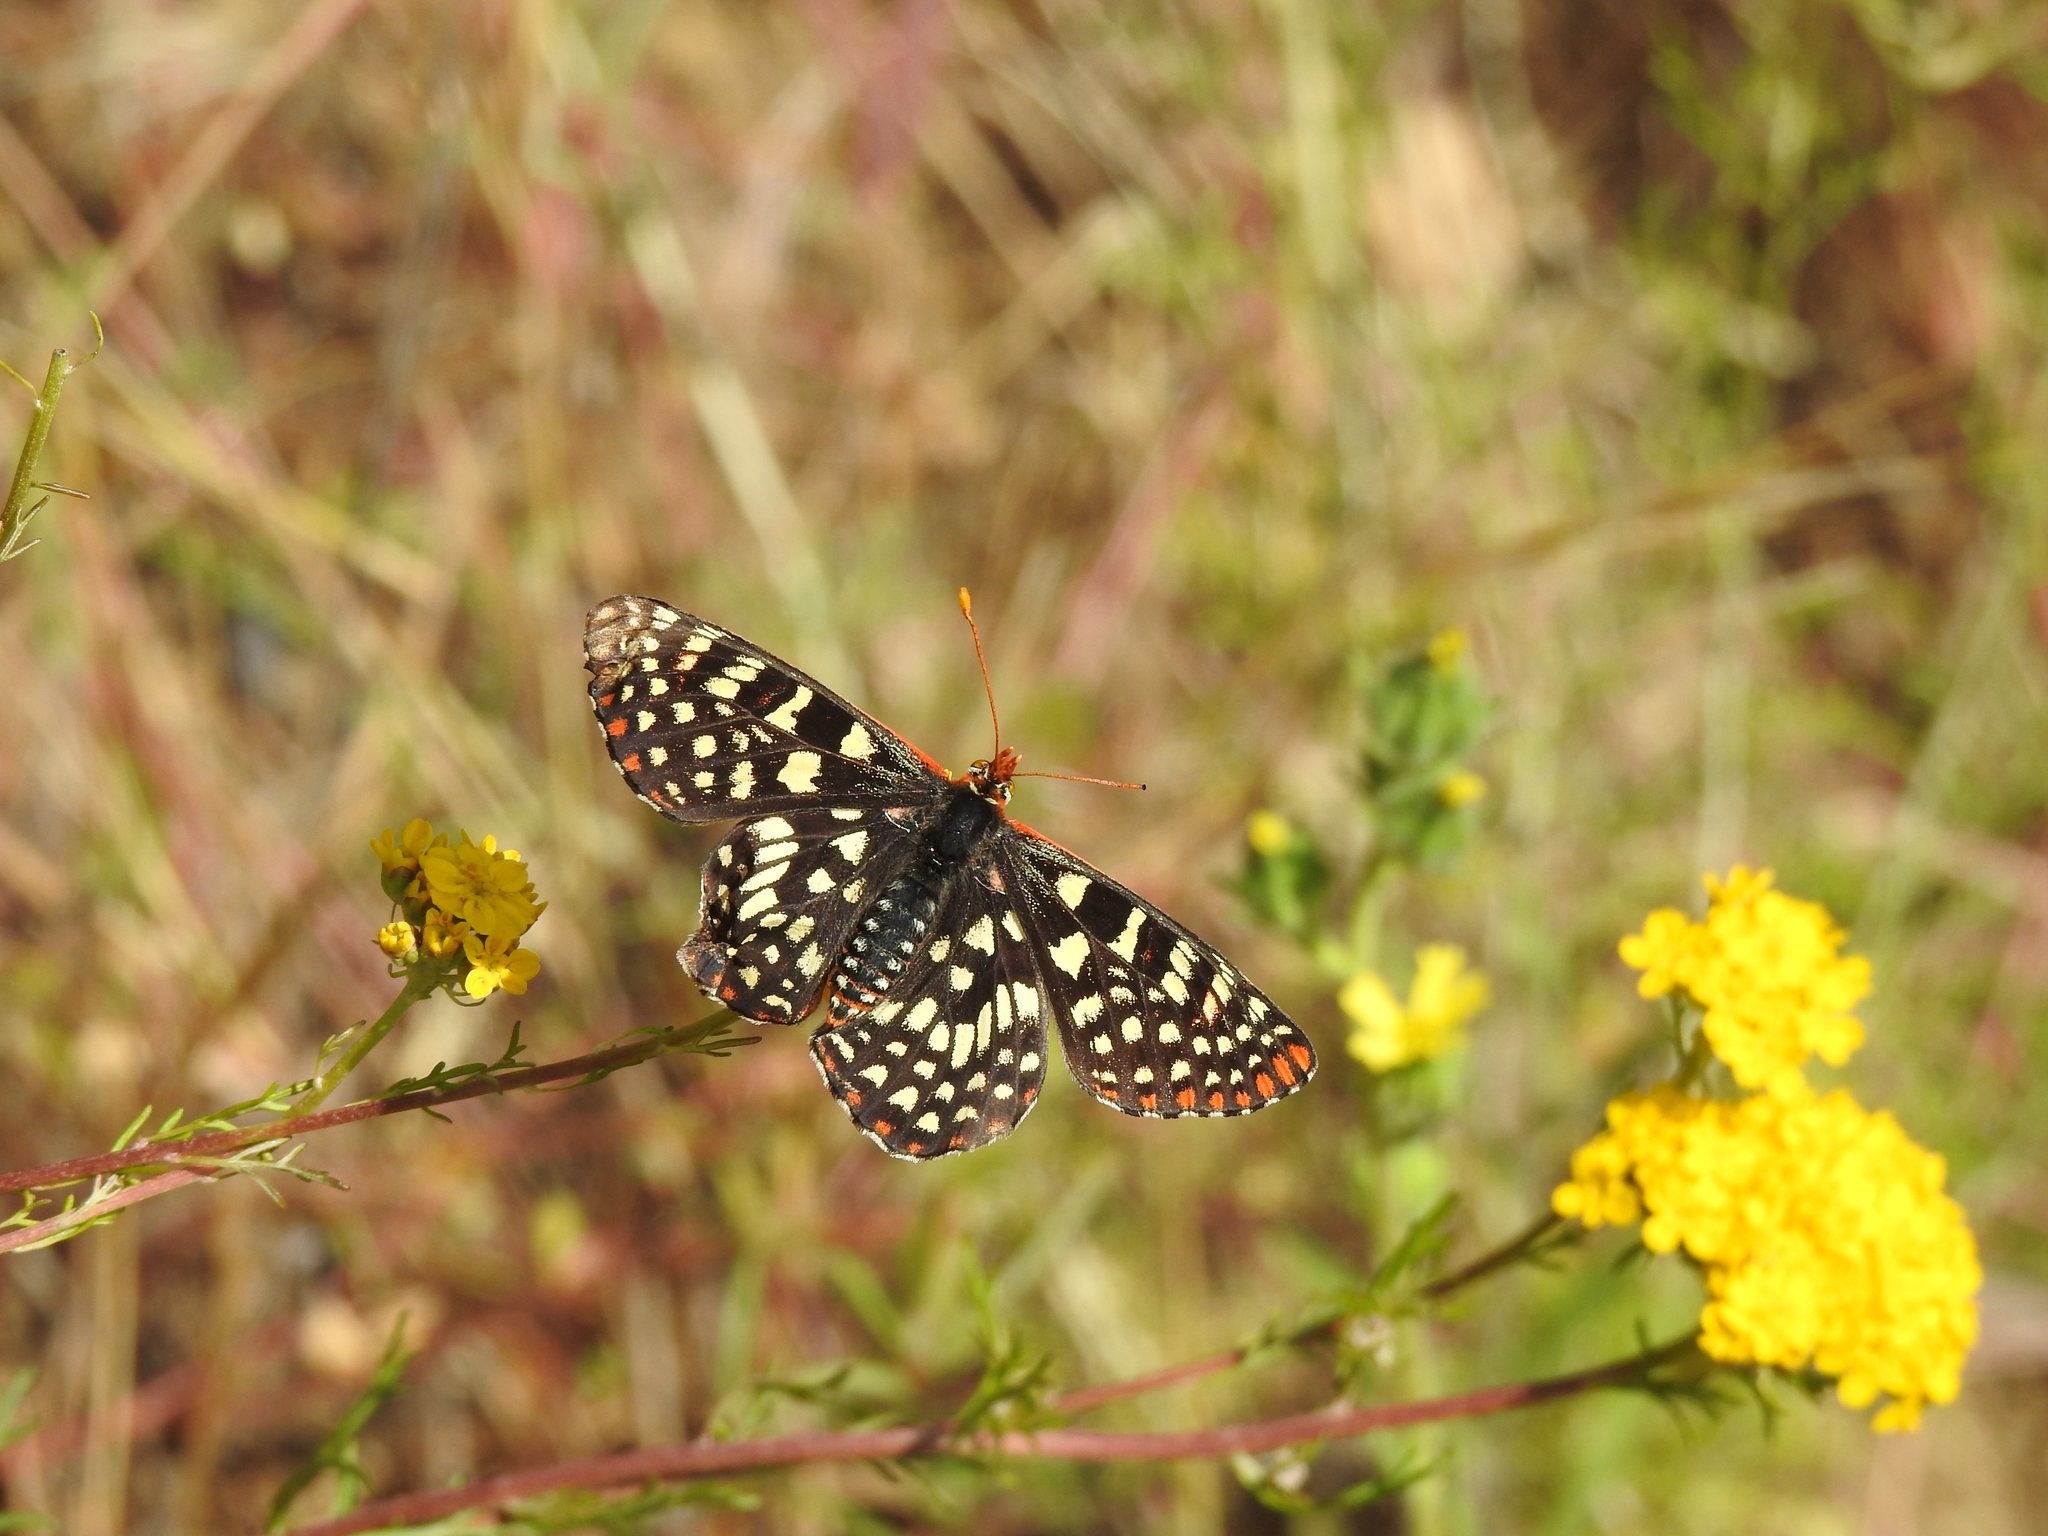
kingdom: Animalia
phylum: Arthropoda
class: Insecta
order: Lepidoptera
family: Nymphalidae
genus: Occidryas
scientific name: Occidryas chalcedona
